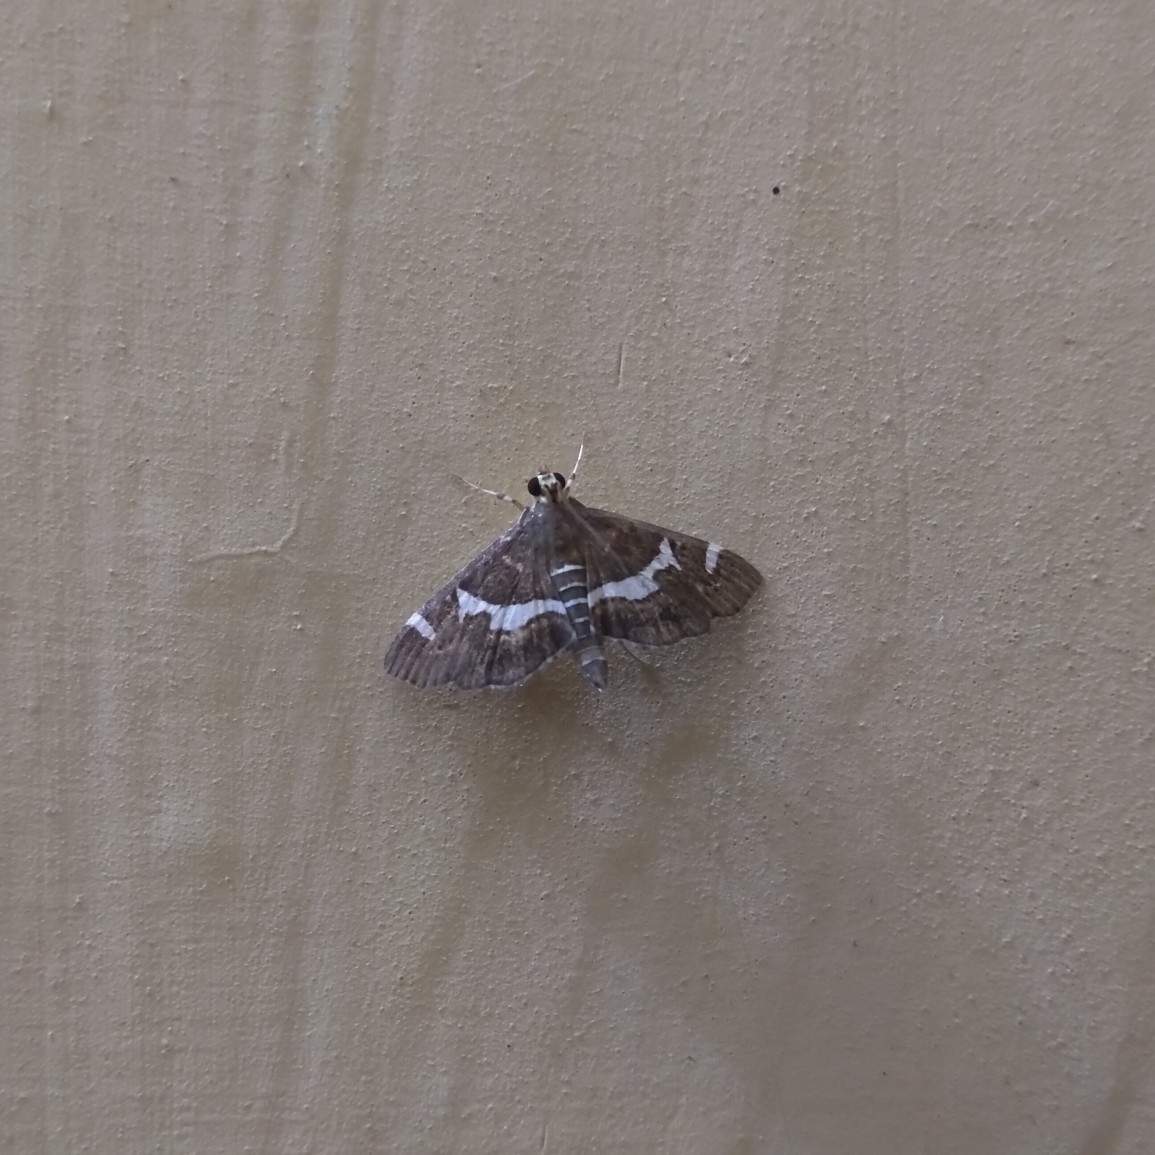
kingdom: Animalia
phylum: Arthropoda
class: Insecta
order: Lepidoptera
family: Crambidae
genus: Spoladea
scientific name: Spoladea recurvalis
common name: Beet webworm moth
